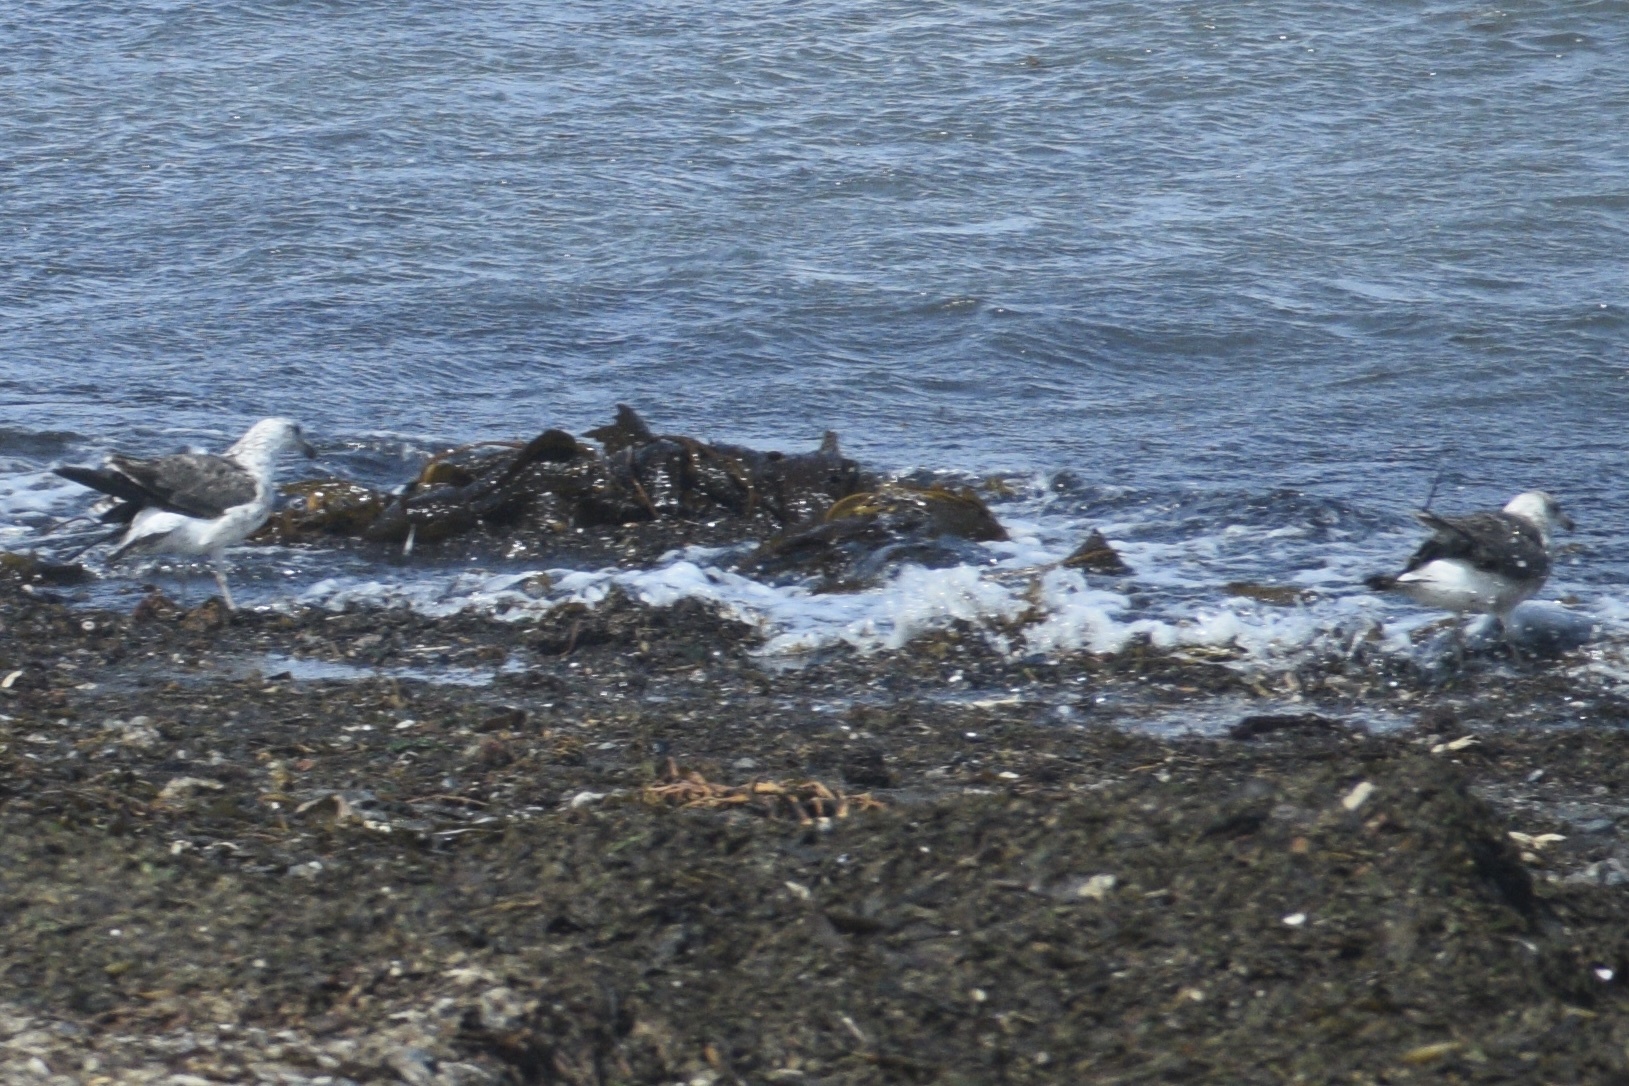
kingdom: Animalia
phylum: Chordata
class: Aves
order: Charadriiformes
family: Laridae
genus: Larus
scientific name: Larus dominicanus
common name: Kelp gull
